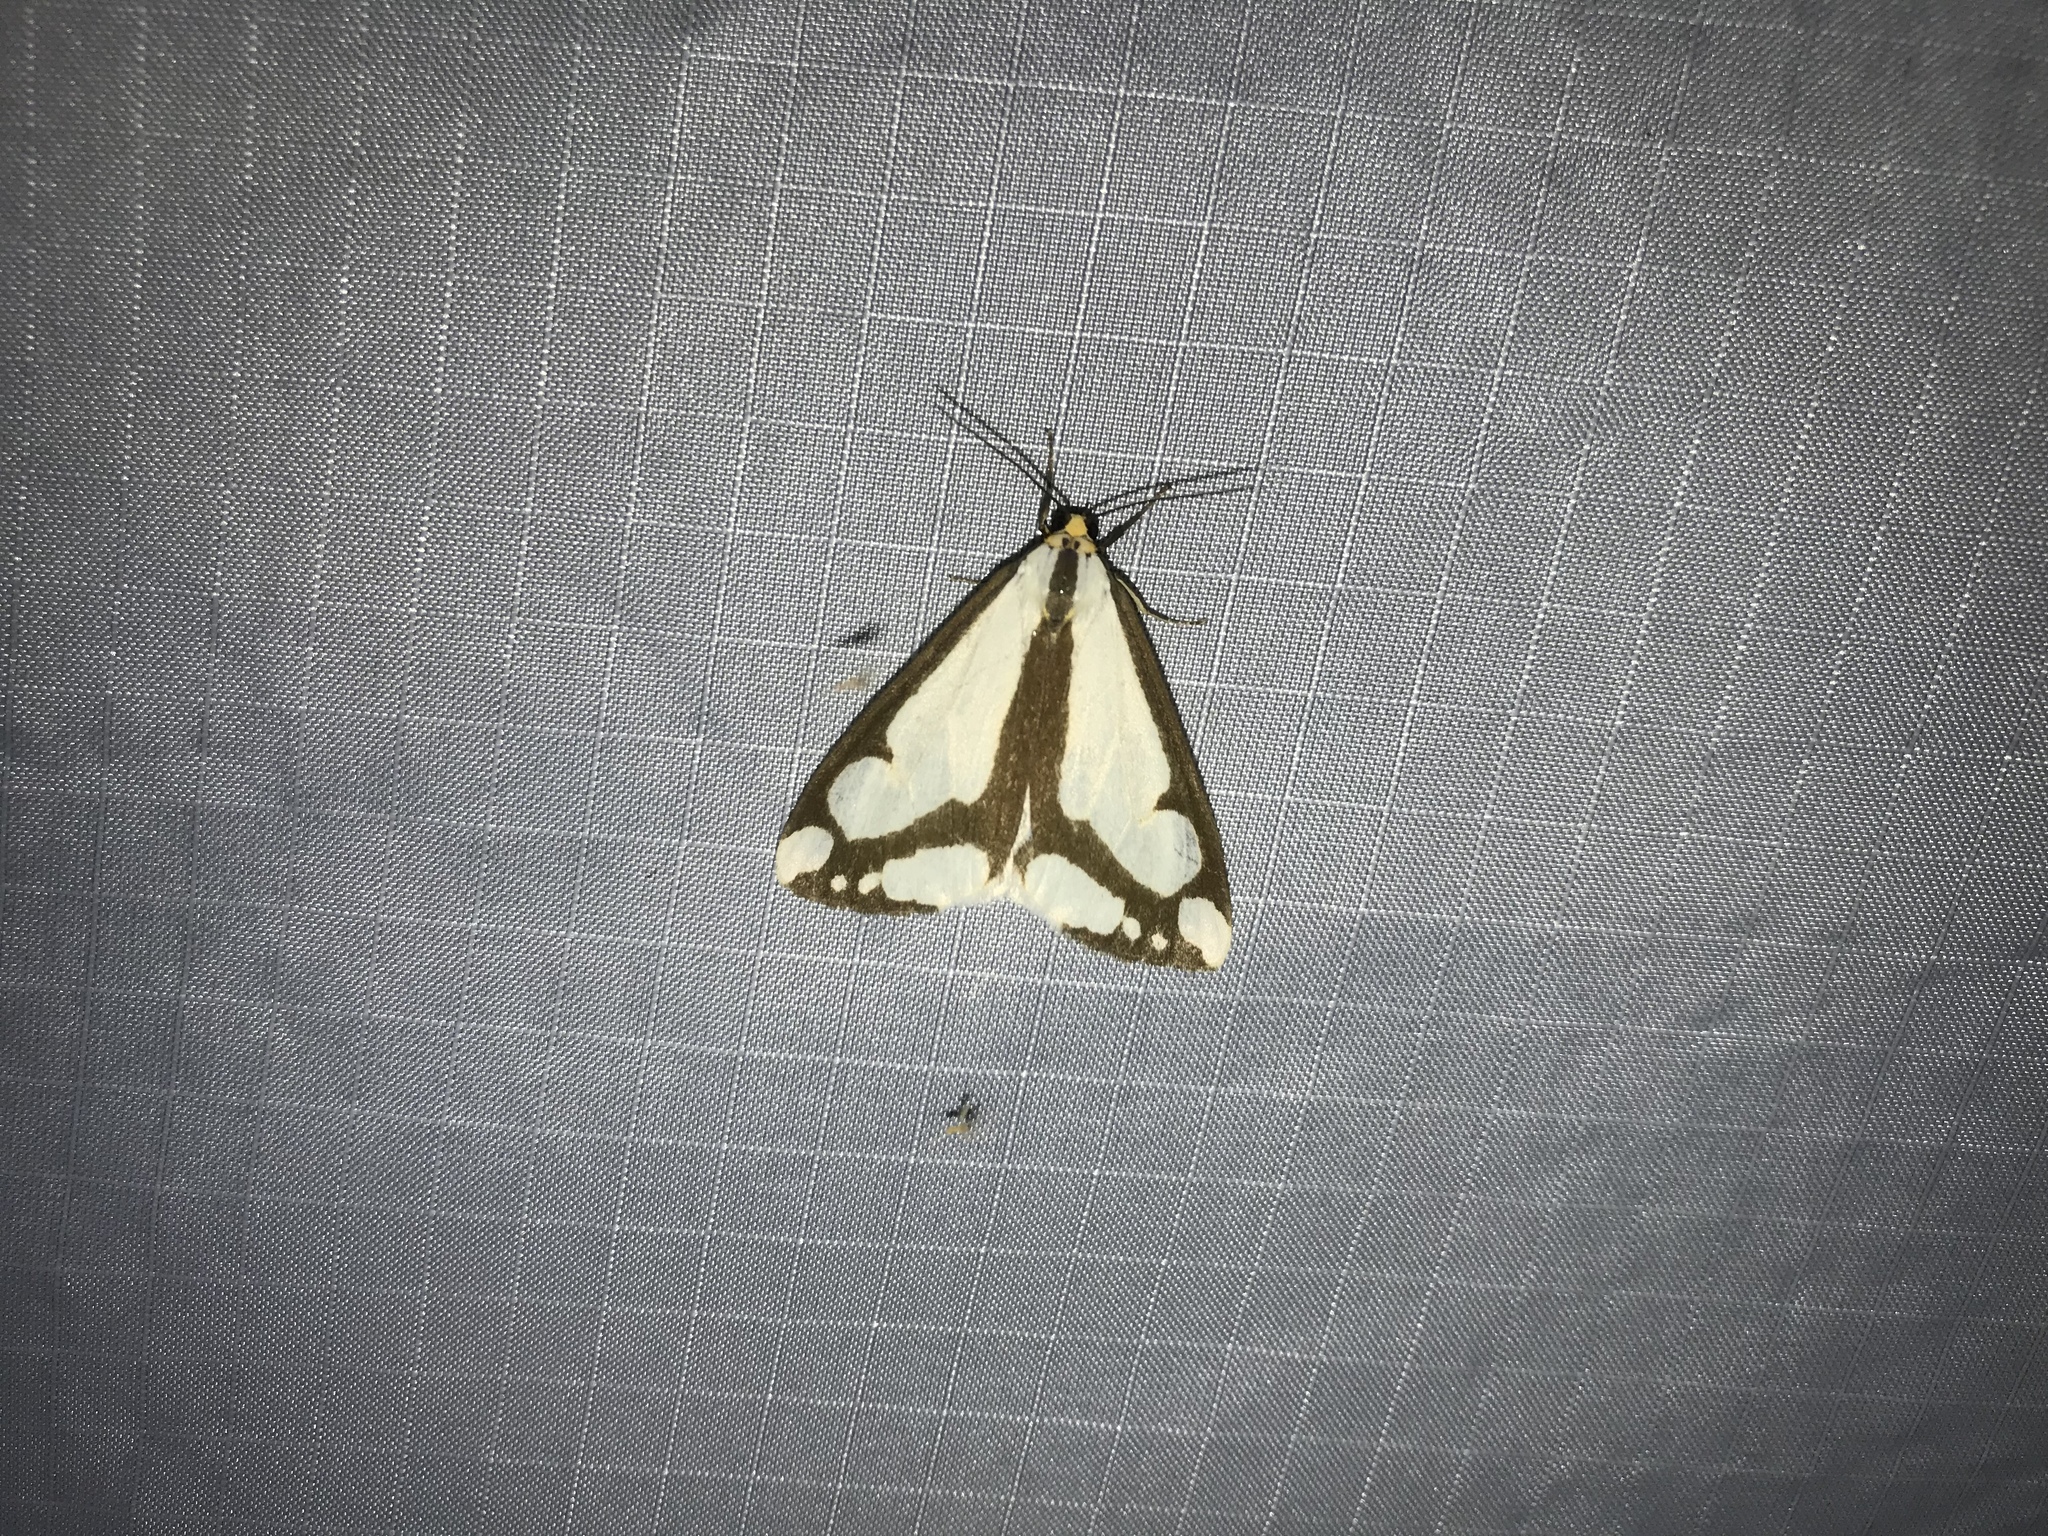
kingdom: Animalia
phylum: Arthropoda
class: Insecta
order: Lepidoptera
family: Erebidae
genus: Haploa
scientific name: Haploa lecontei
